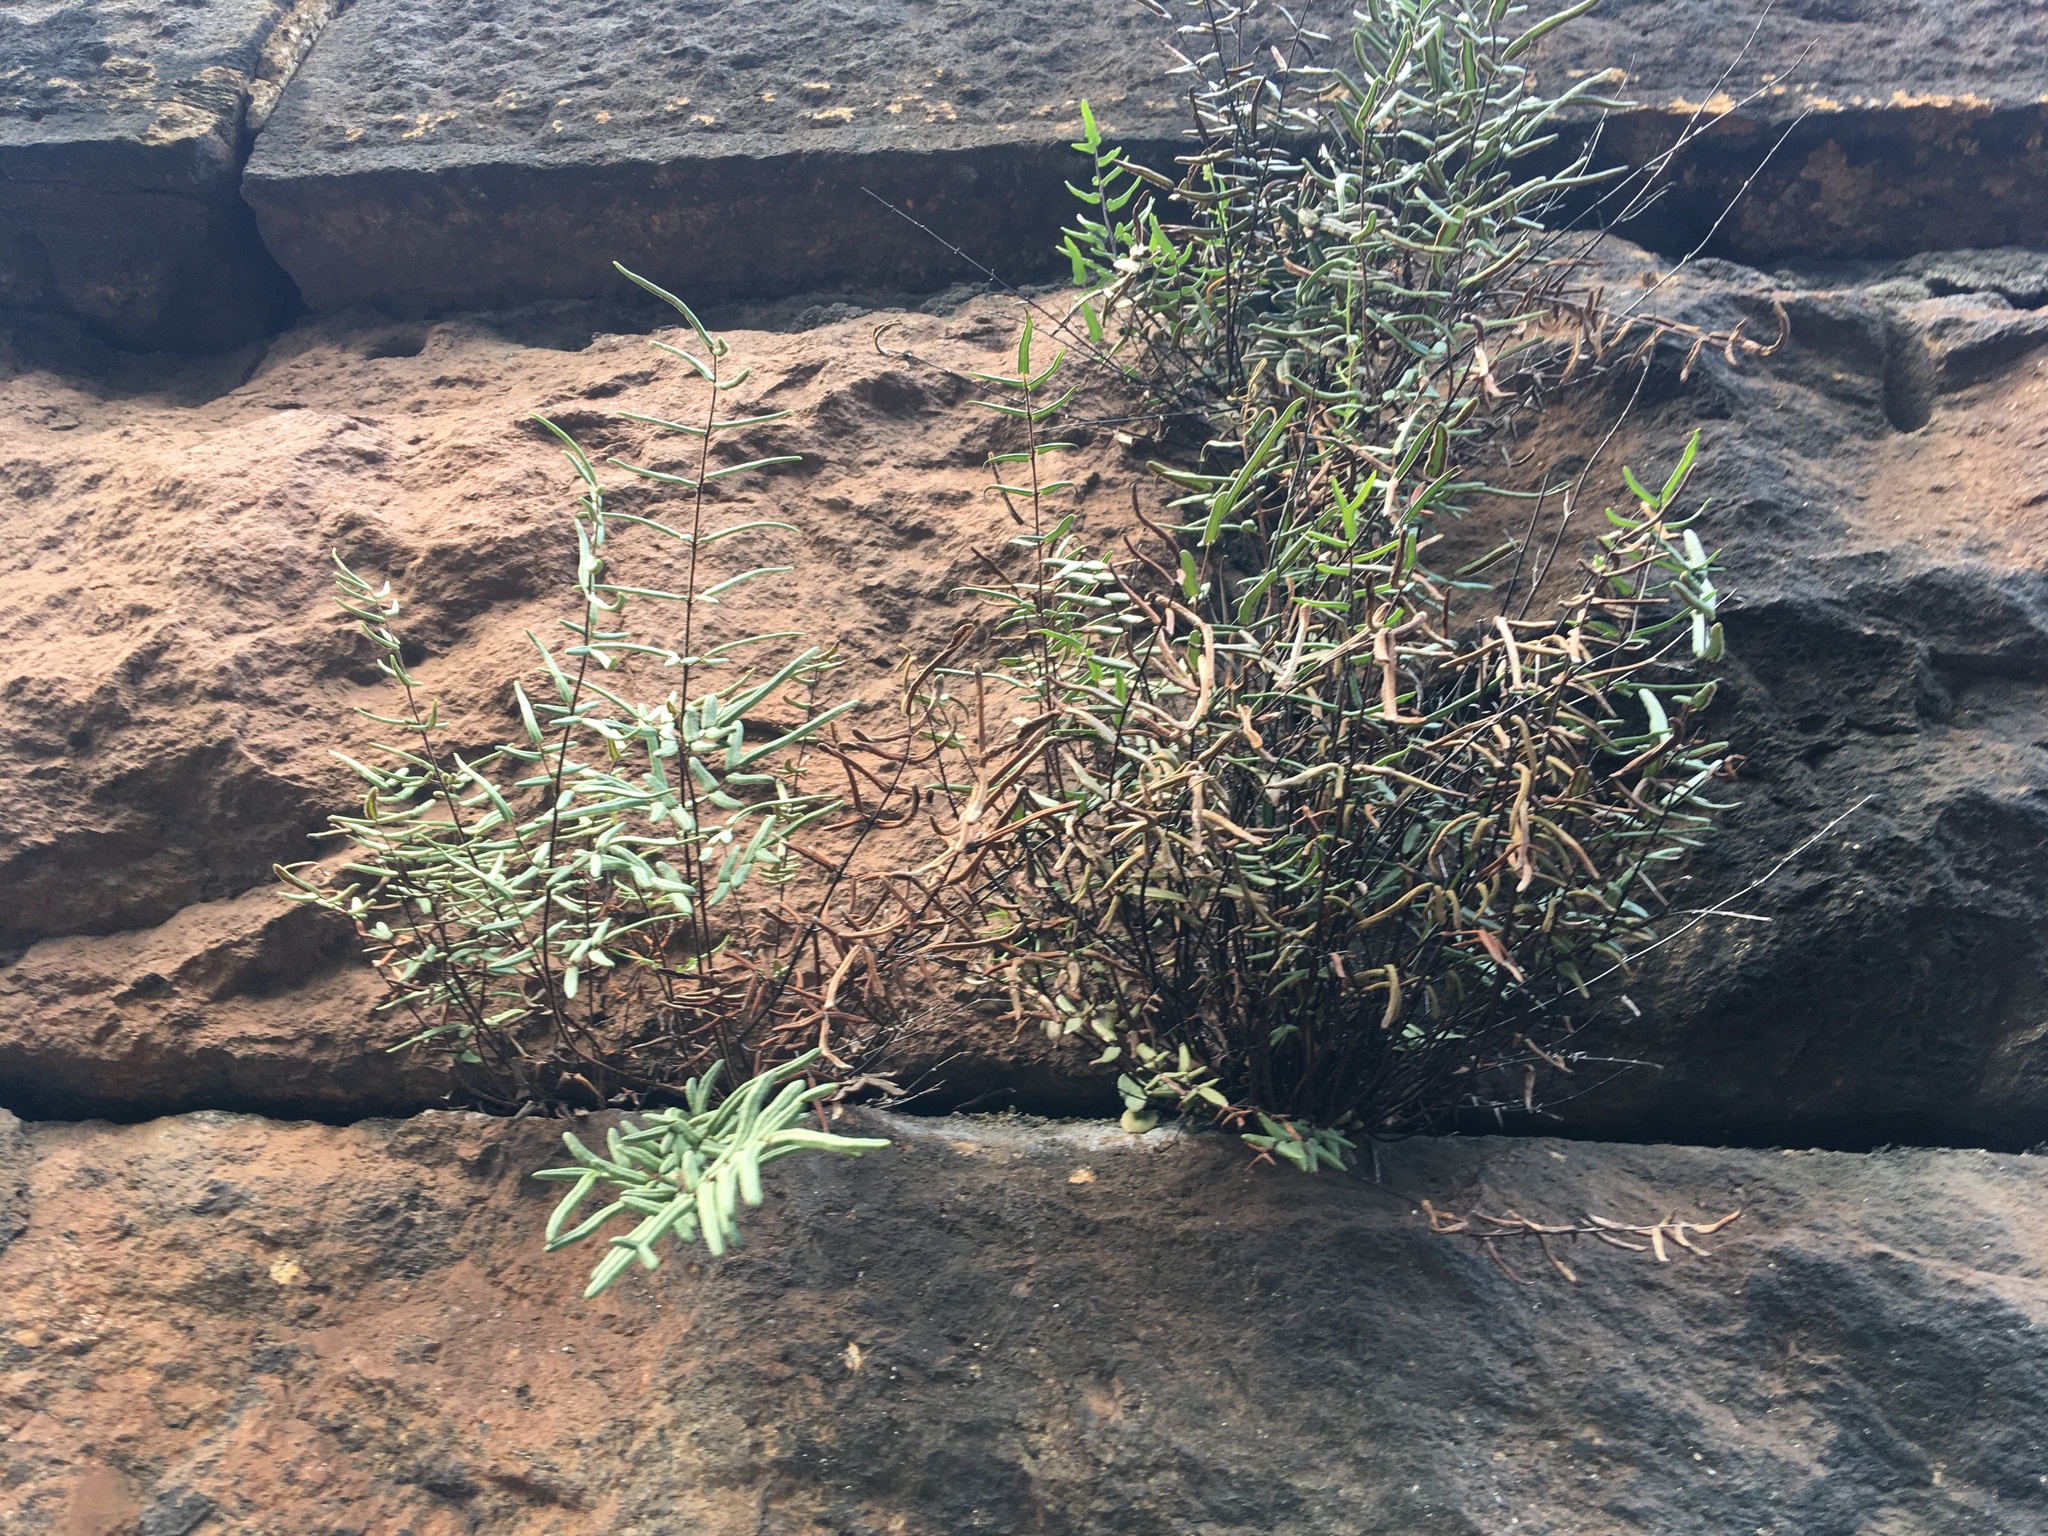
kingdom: Plantae
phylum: Tracheophyta
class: Polypodiopsida
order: Polypodiales
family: Pteridaceae
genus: Pellaea
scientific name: Pellaea atropurpurea
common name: Hairy cliffbrake
